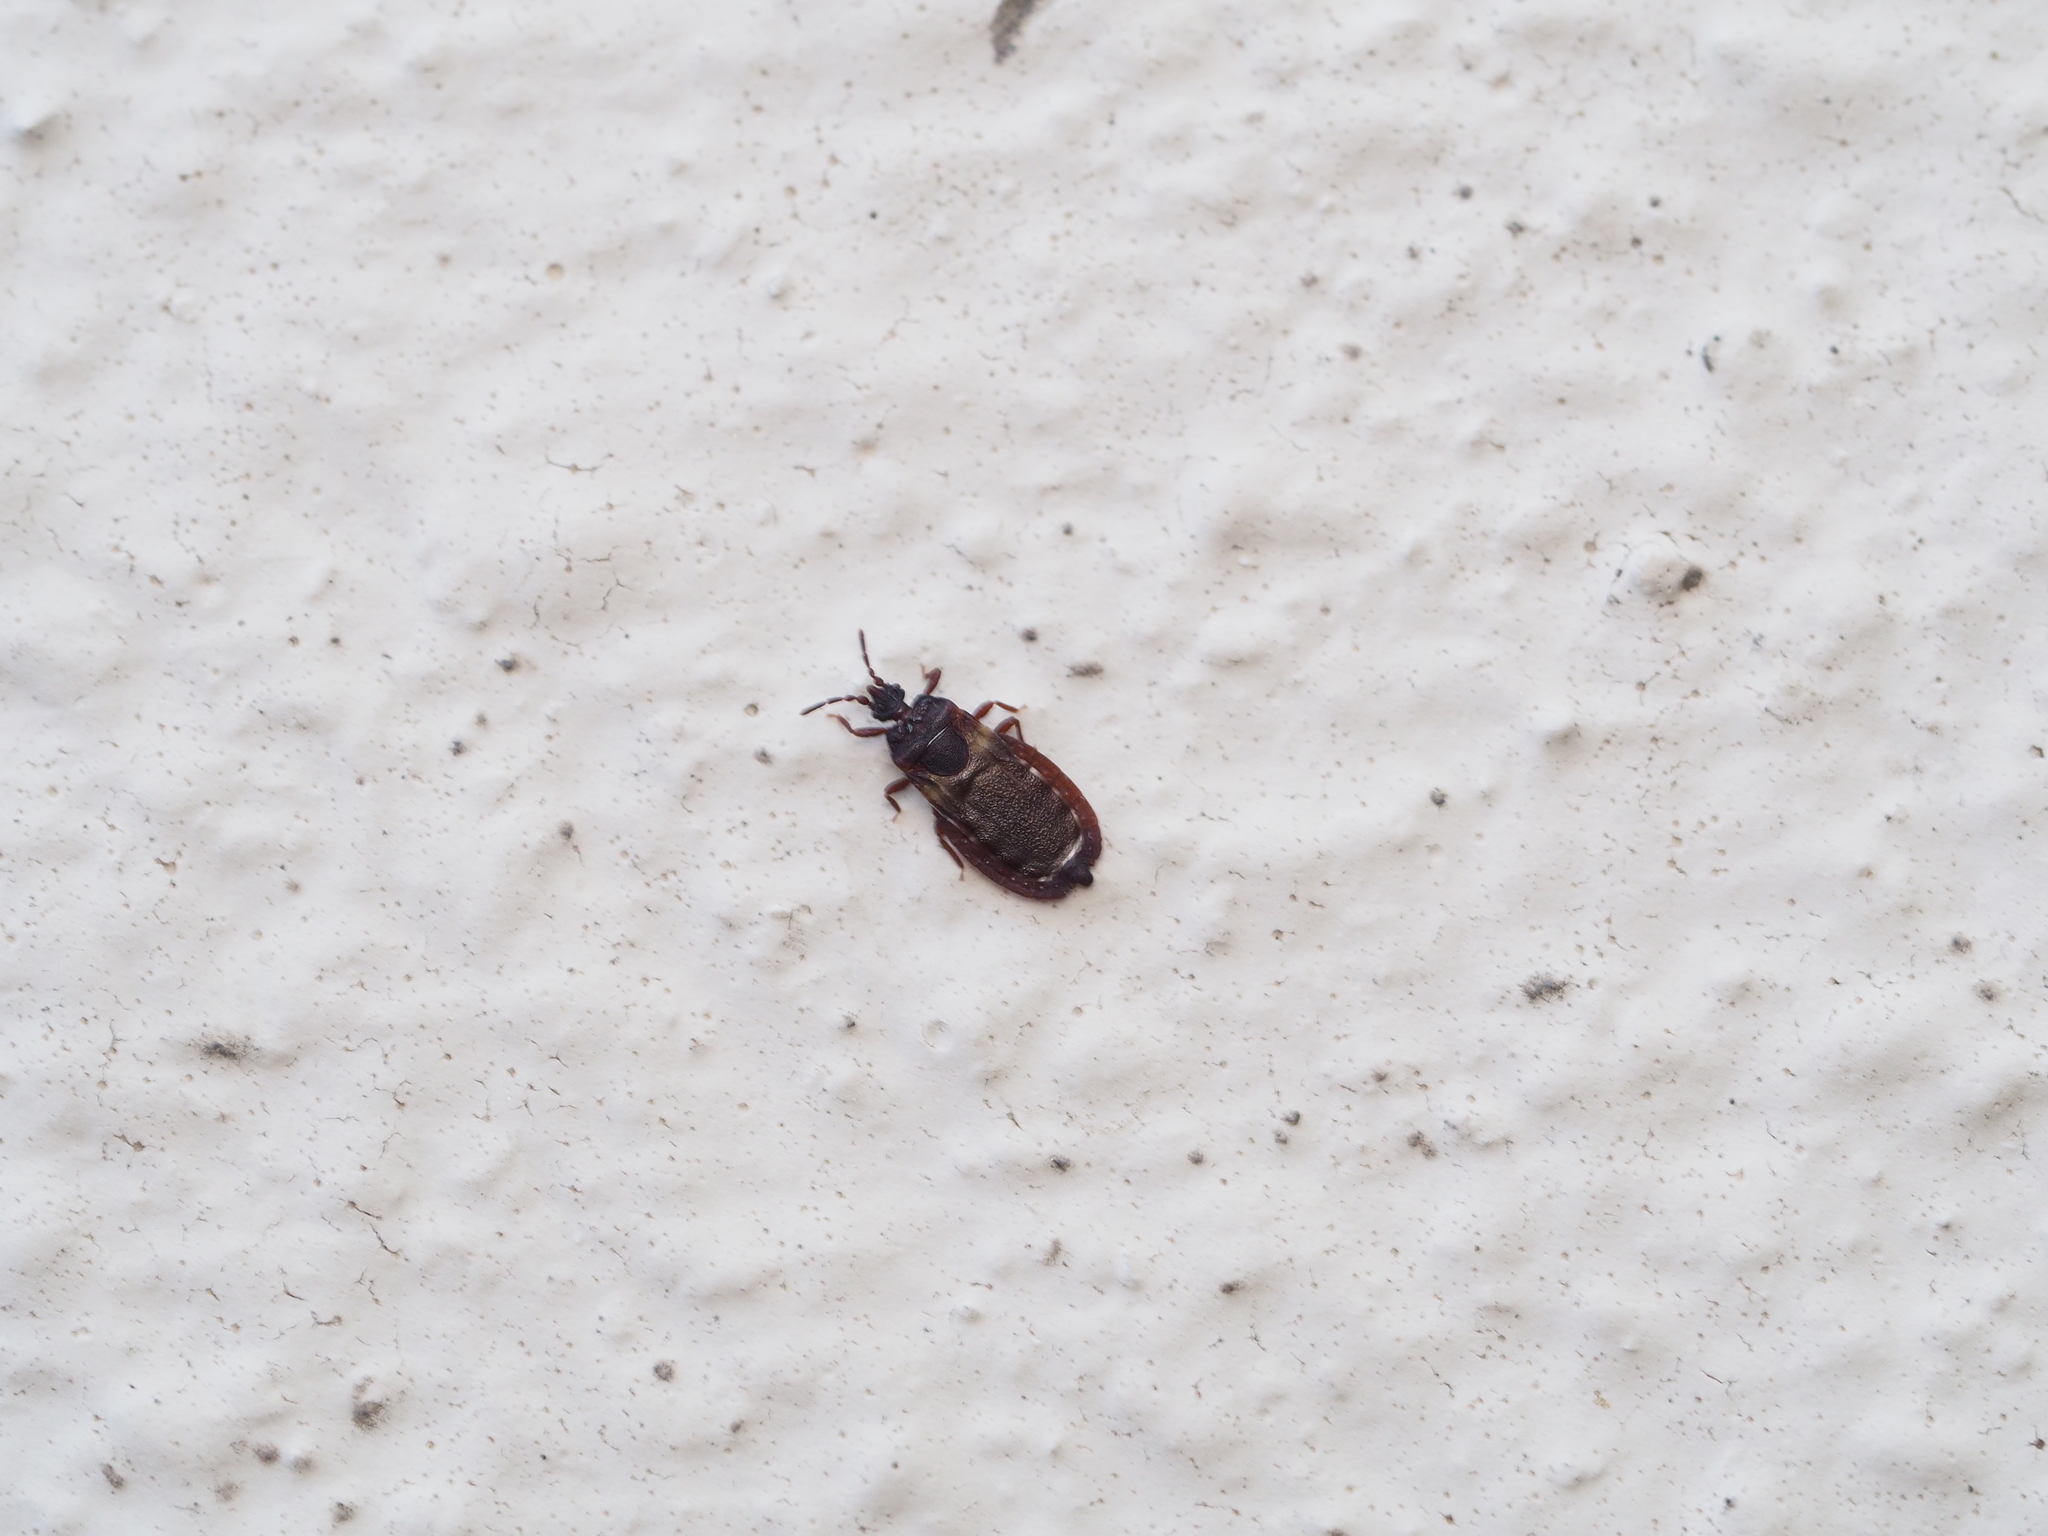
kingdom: Animalia
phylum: Arthropoda
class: Insecta
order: Hemiptera
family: Aradidae
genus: Aneurus
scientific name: Aneurus avenius
